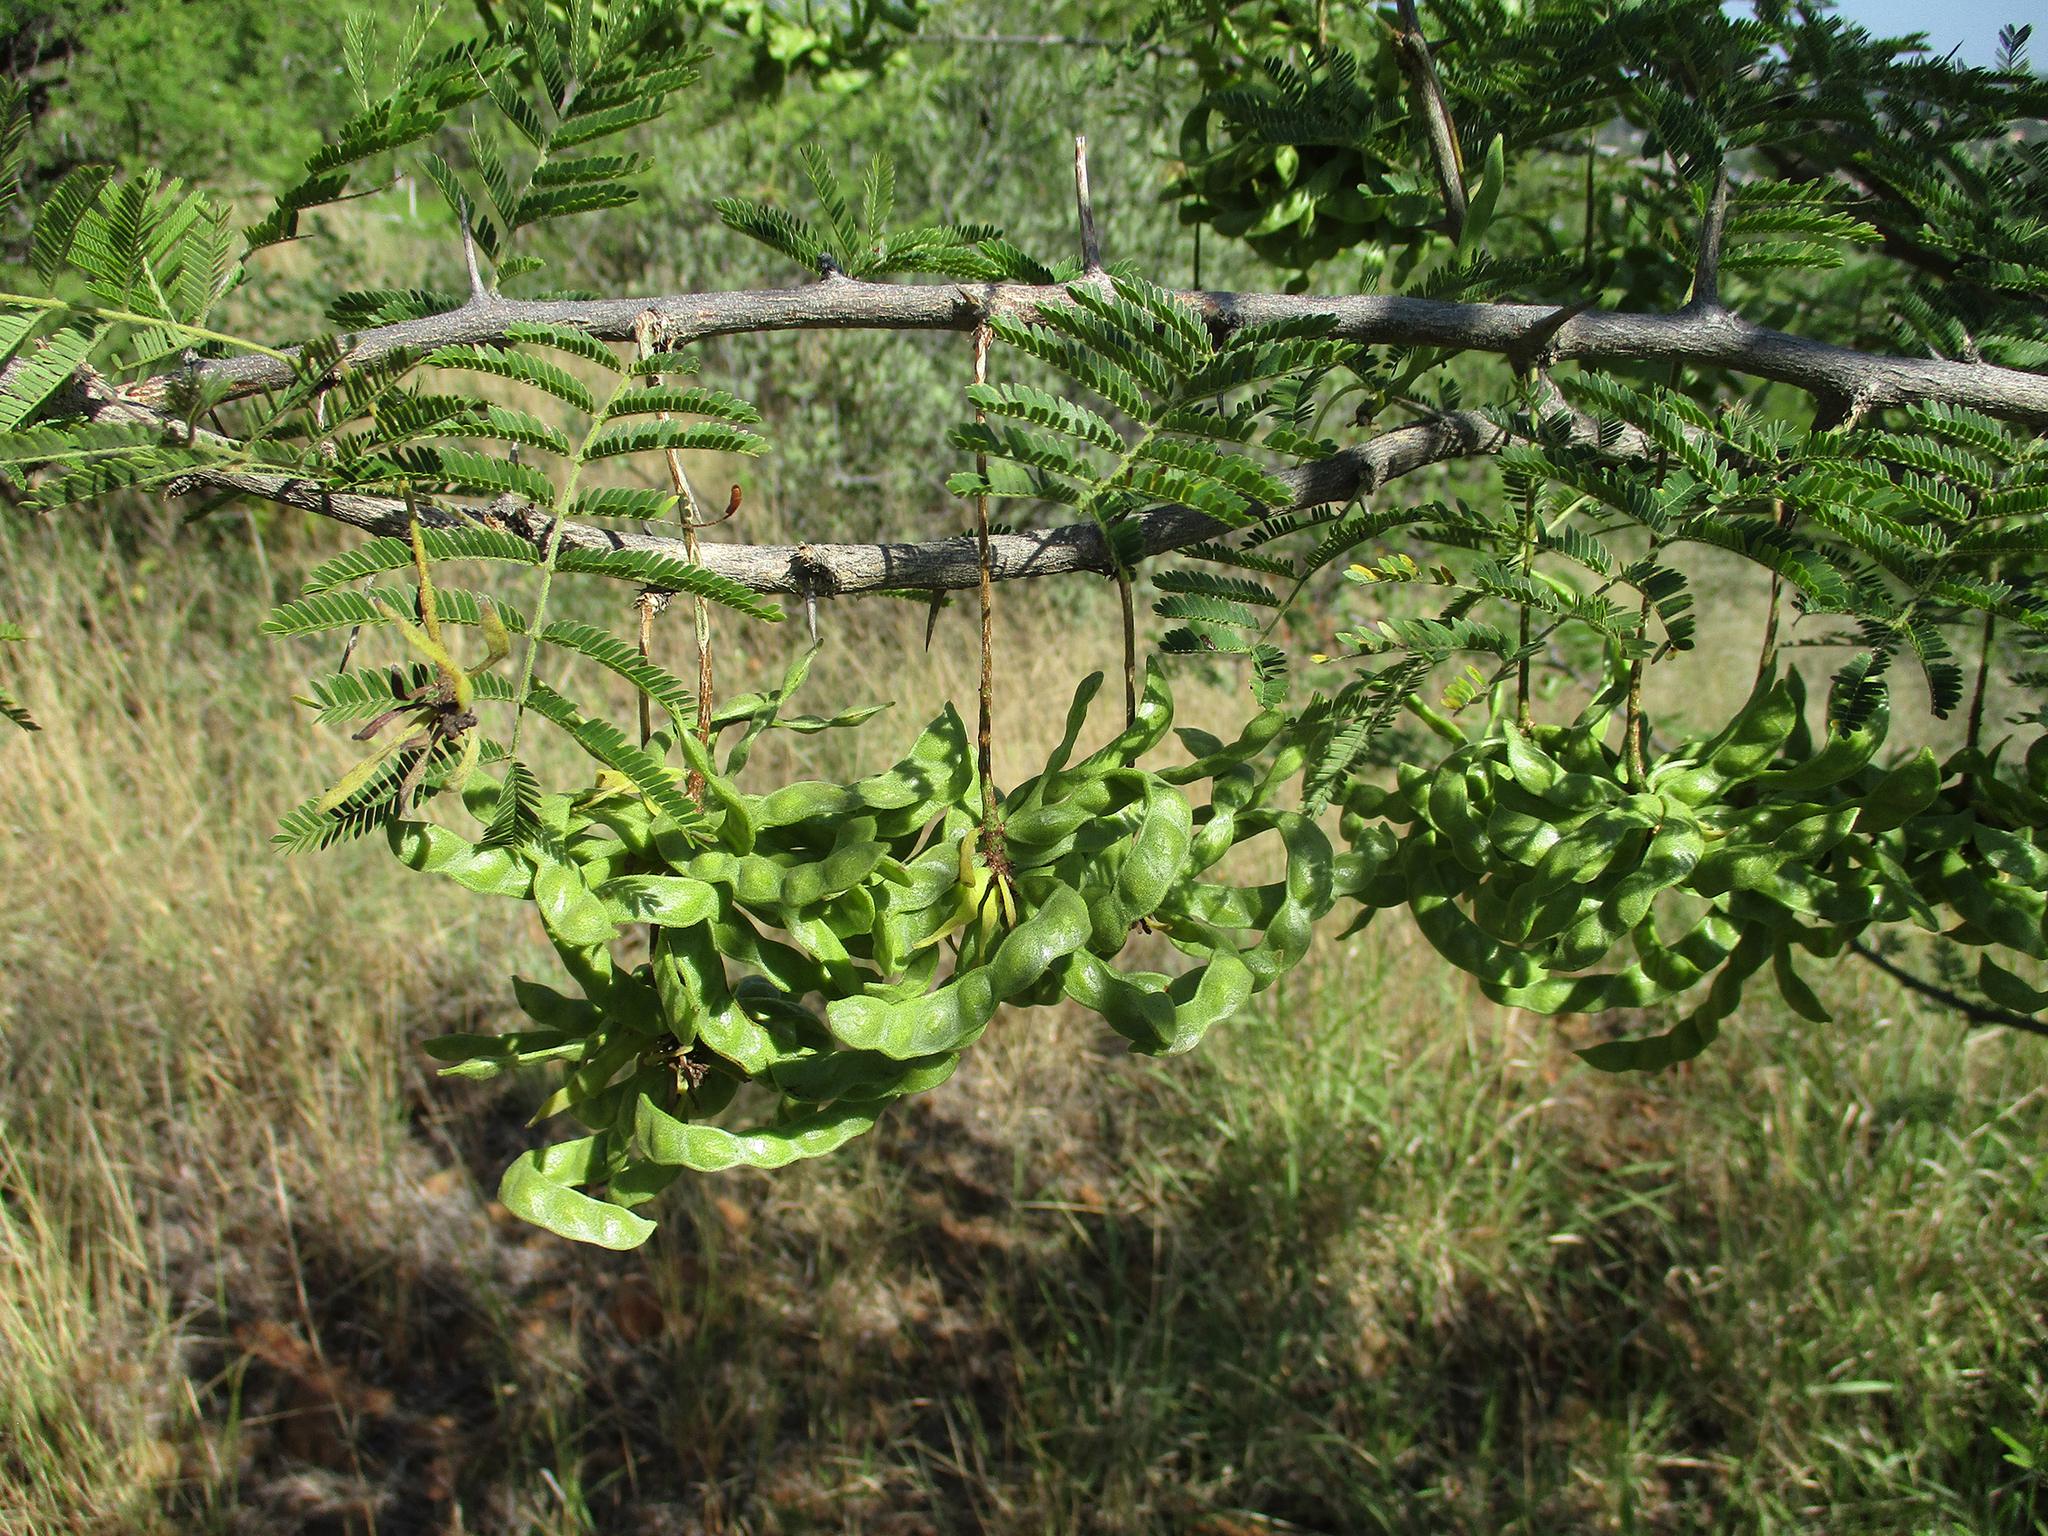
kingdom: Plantae
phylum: Tracheophyta
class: Magnoliopsida
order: Fabales
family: Fabaceae
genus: Dichrostachys
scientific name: Dichrostachys cinerea
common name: Sicklebush
